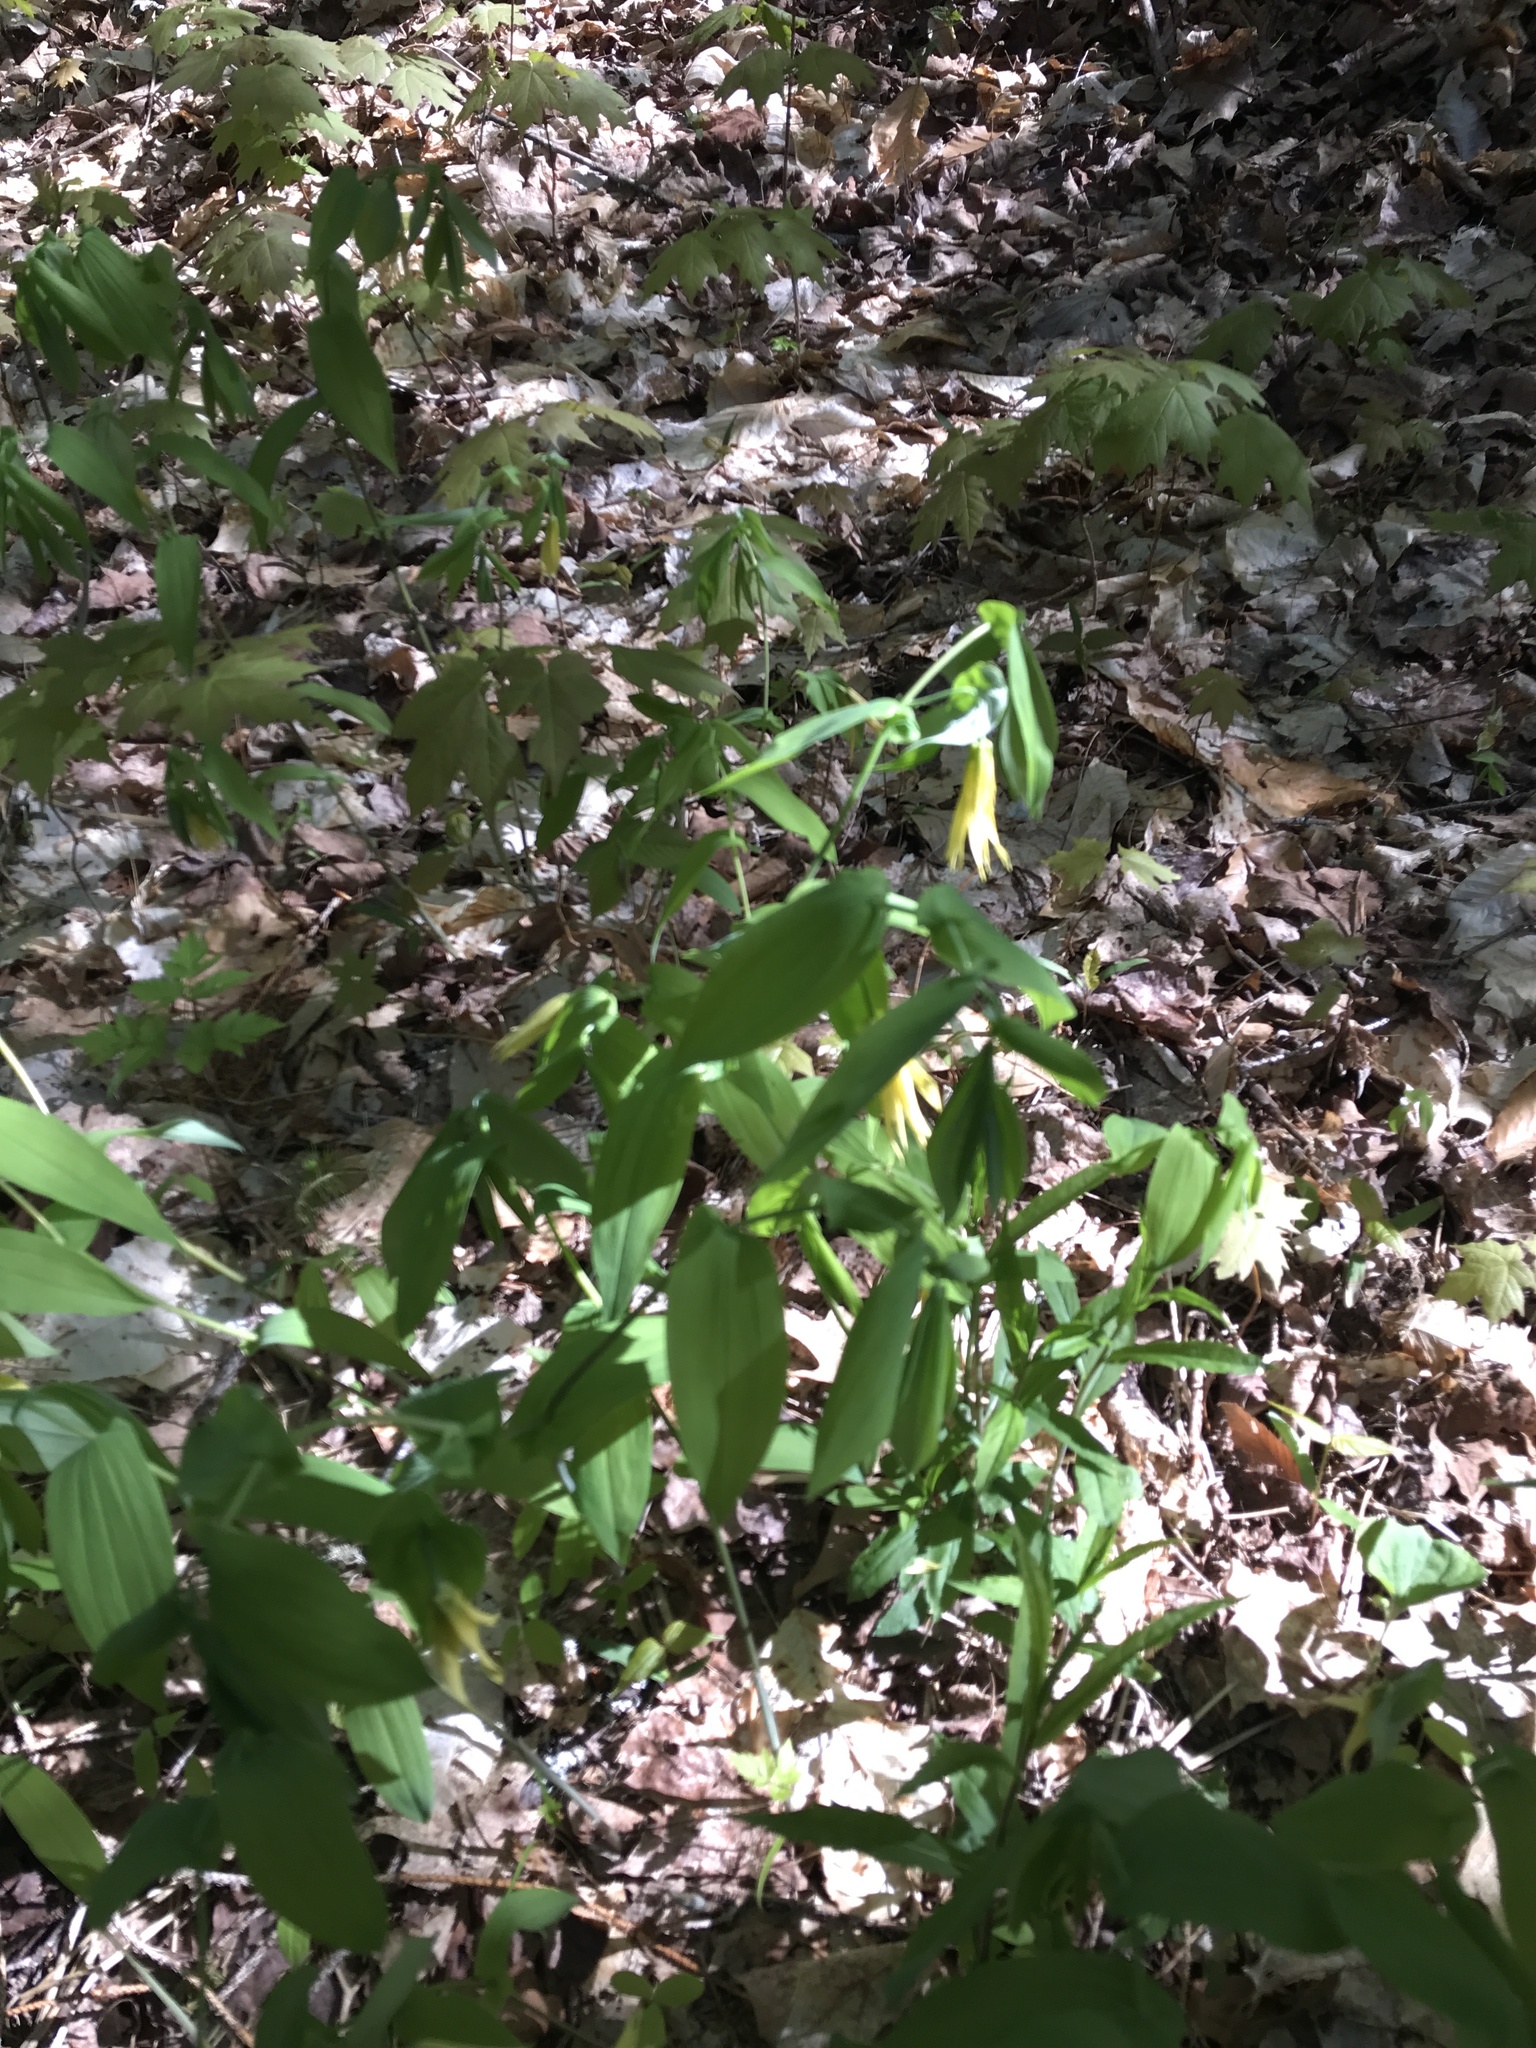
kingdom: Plantae
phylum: Tracheophyta
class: Liliopsida
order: Liliales
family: Colchicaceae
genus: Uvularia
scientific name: Uvularia grandiflora
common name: Bellwort
